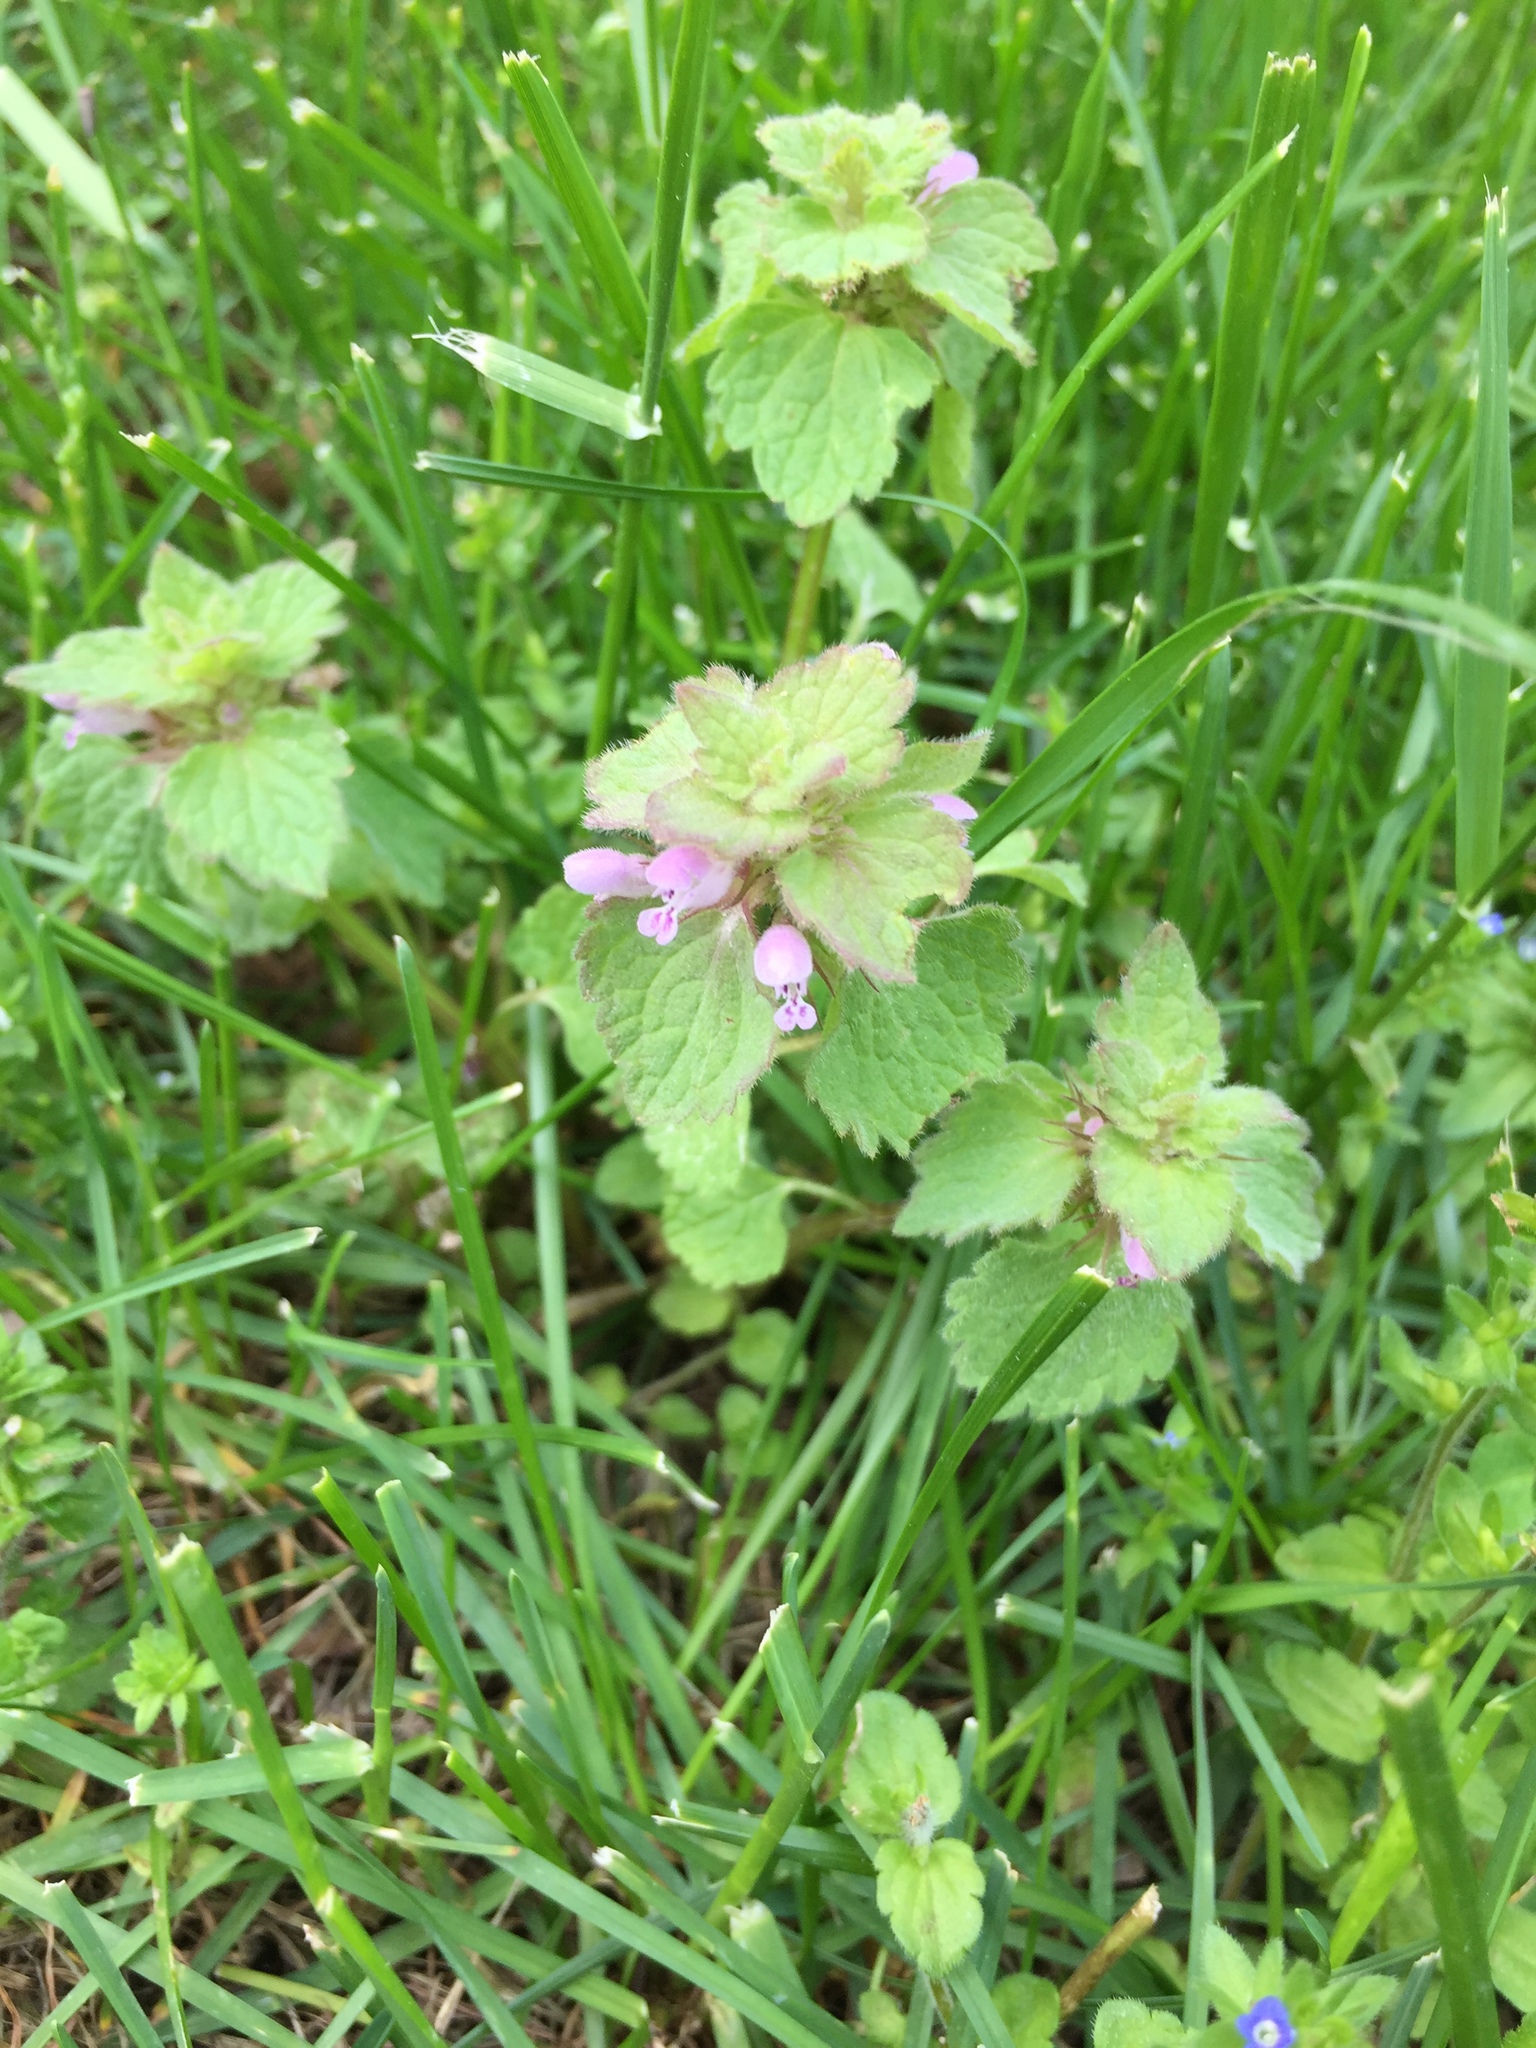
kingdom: Plantae
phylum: Tracheophyta
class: Magnoliopsida
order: Lamiales
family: Lamiaceae
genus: Lamium
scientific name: Lamium purpureum
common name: Red dead-nettle
